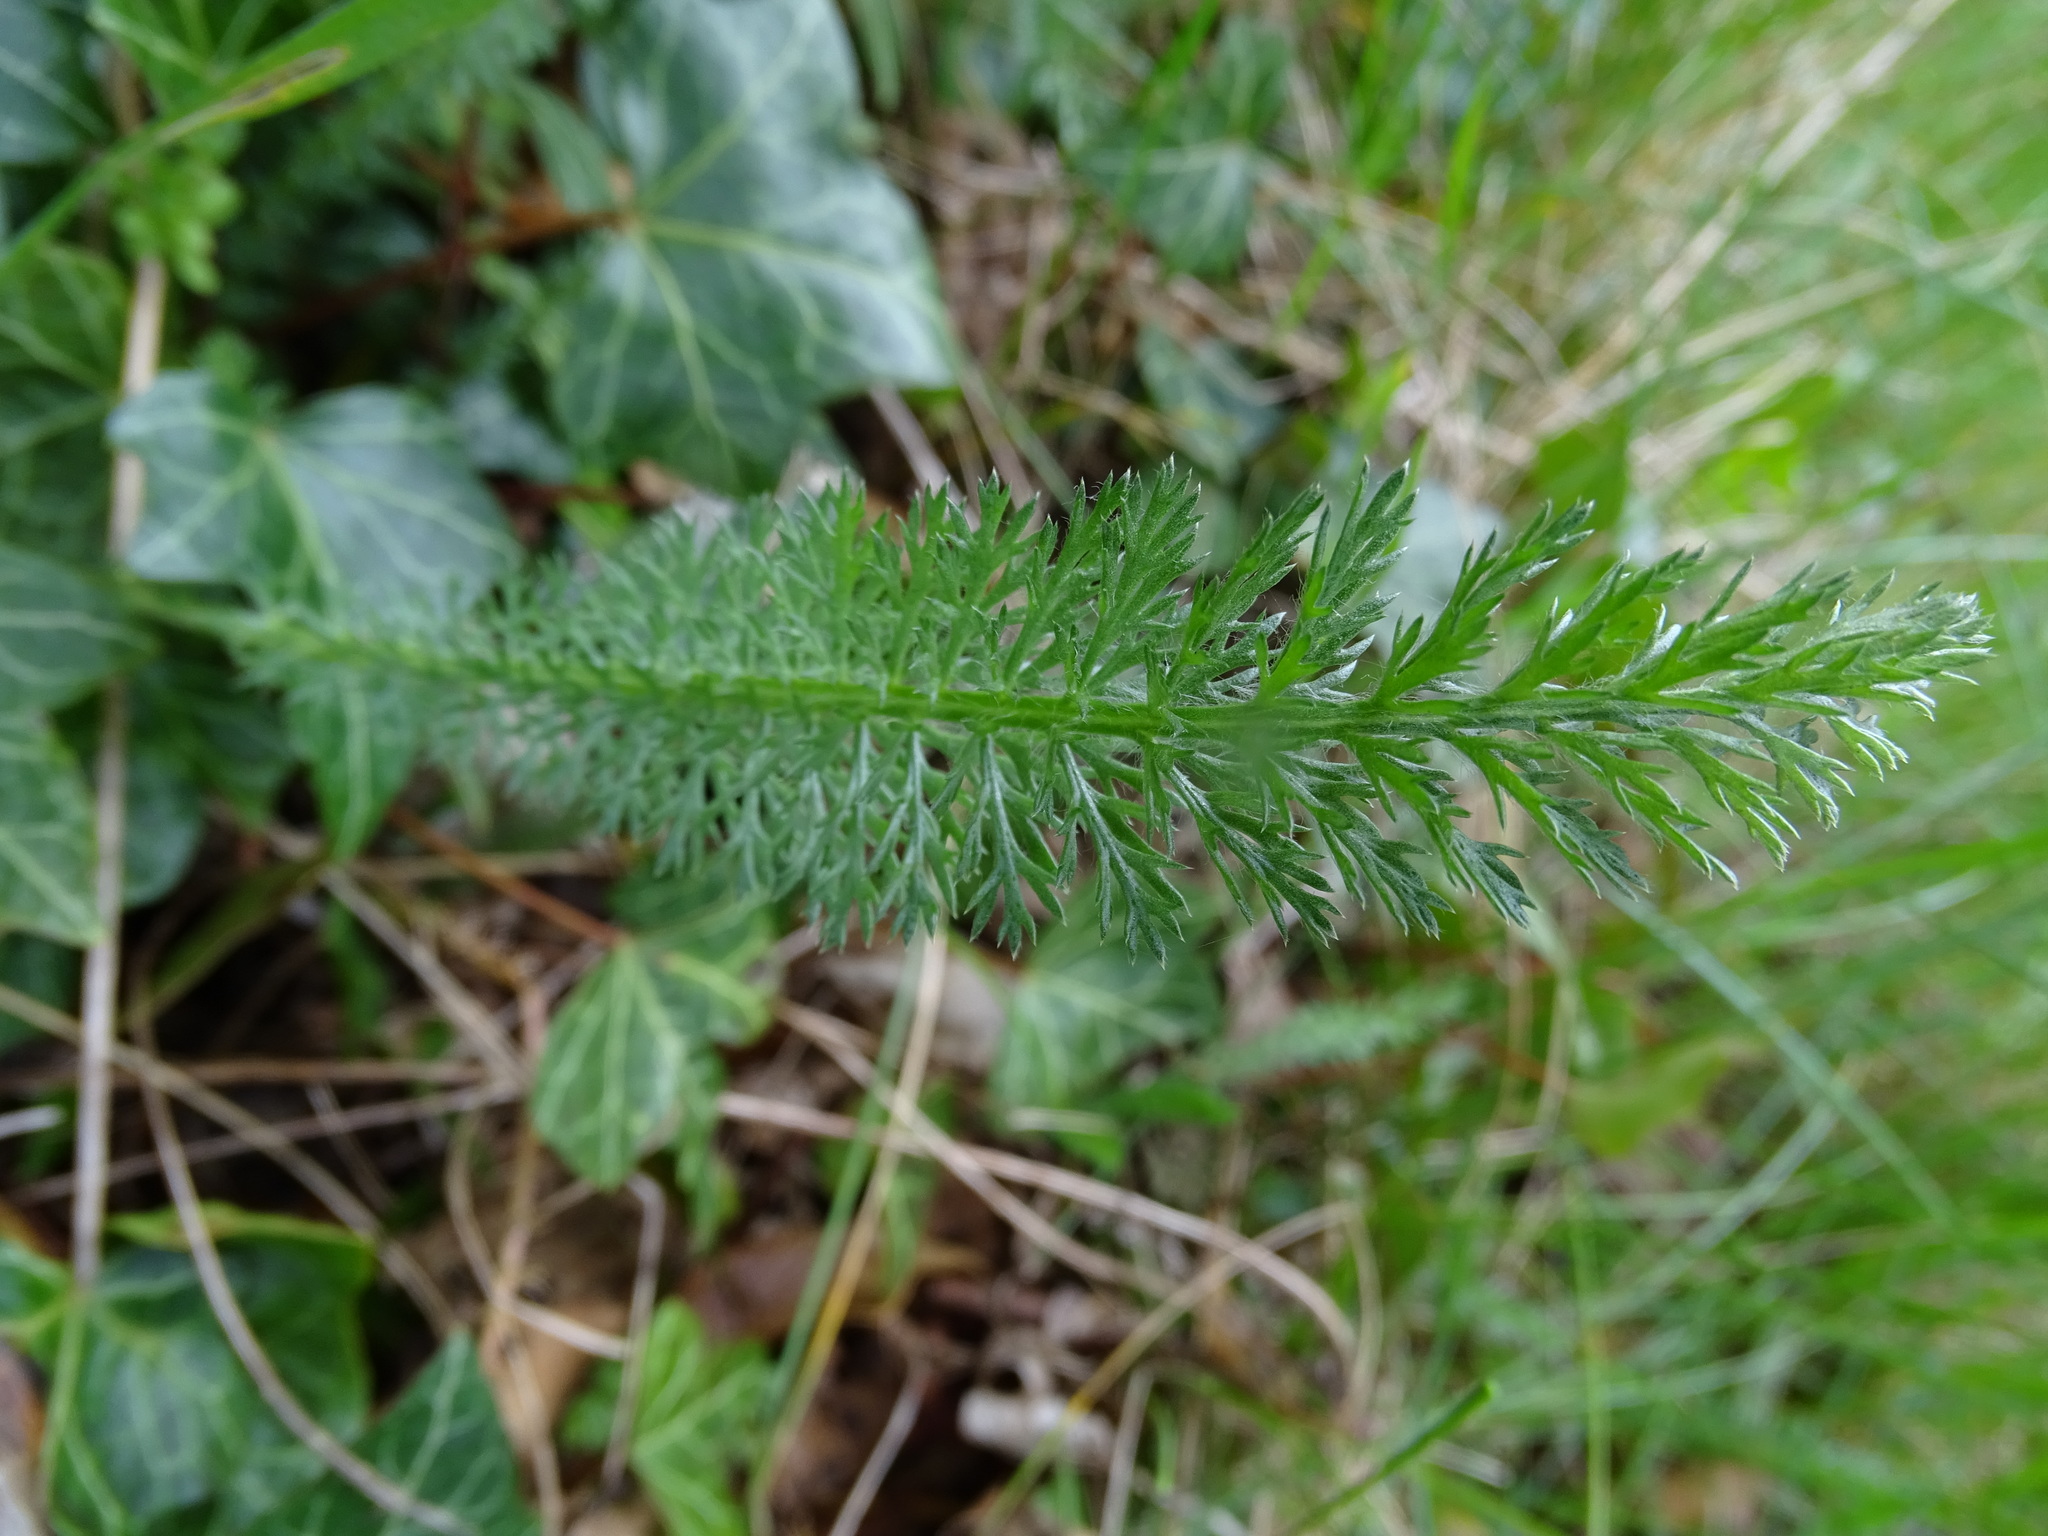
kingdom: Plantae
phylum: Tracheophyta
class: Magnoliopsida
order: Asterales
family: Asteraceae
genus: Achillea
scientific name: Achillea millefolium
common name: Yarrow
